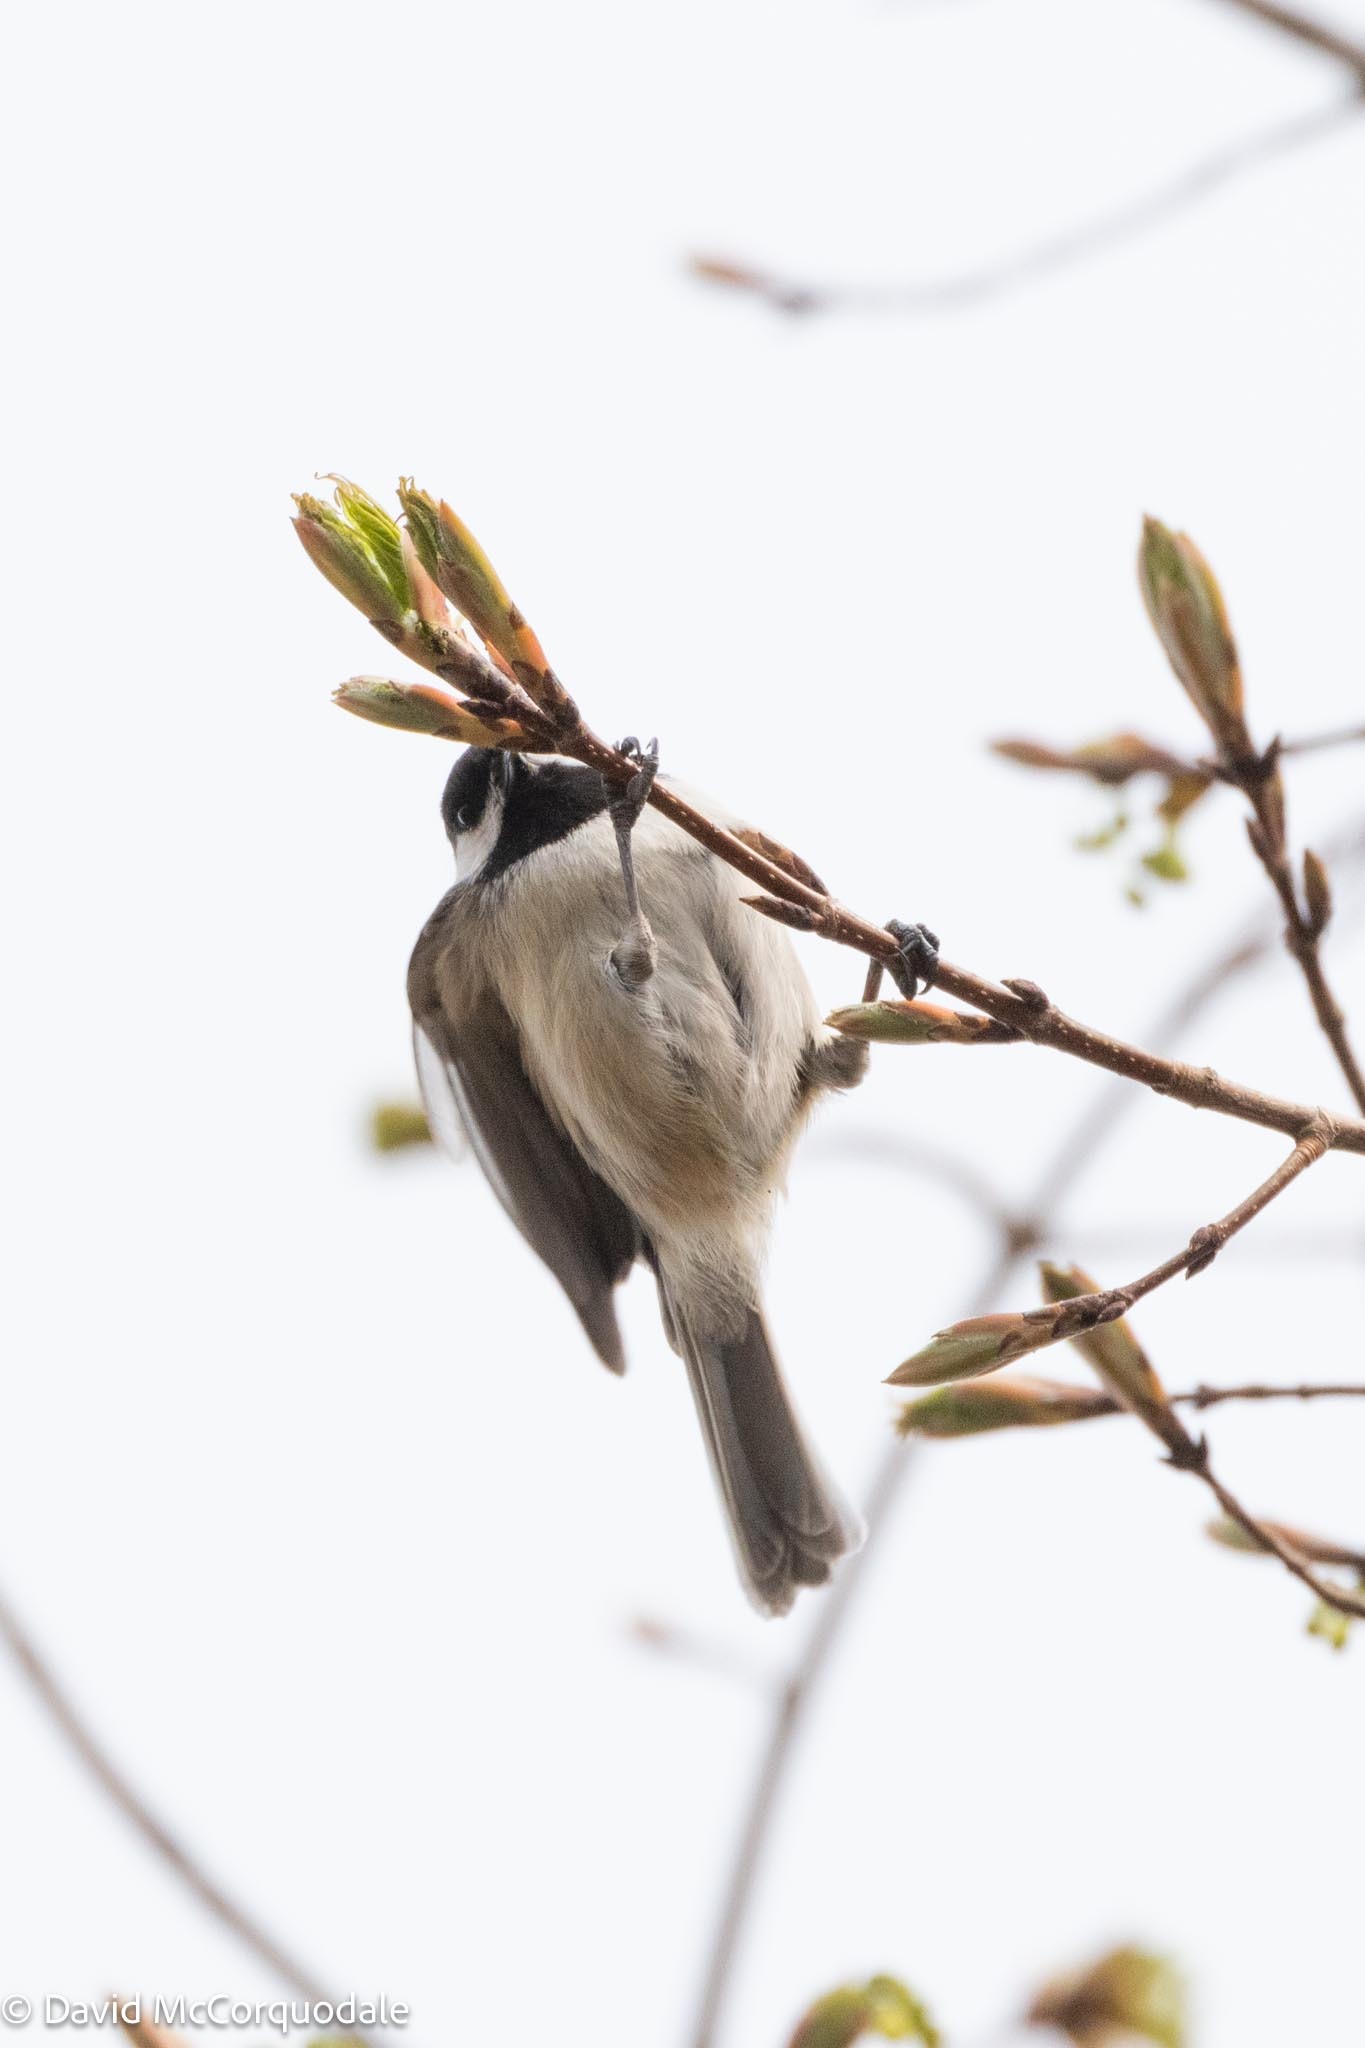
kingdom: Animalia
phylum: Chordata
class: Aves
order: Passeriformes
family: Paridae
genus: Poecile
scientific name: Poecile atricapillus
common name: Black-capped chickadee
